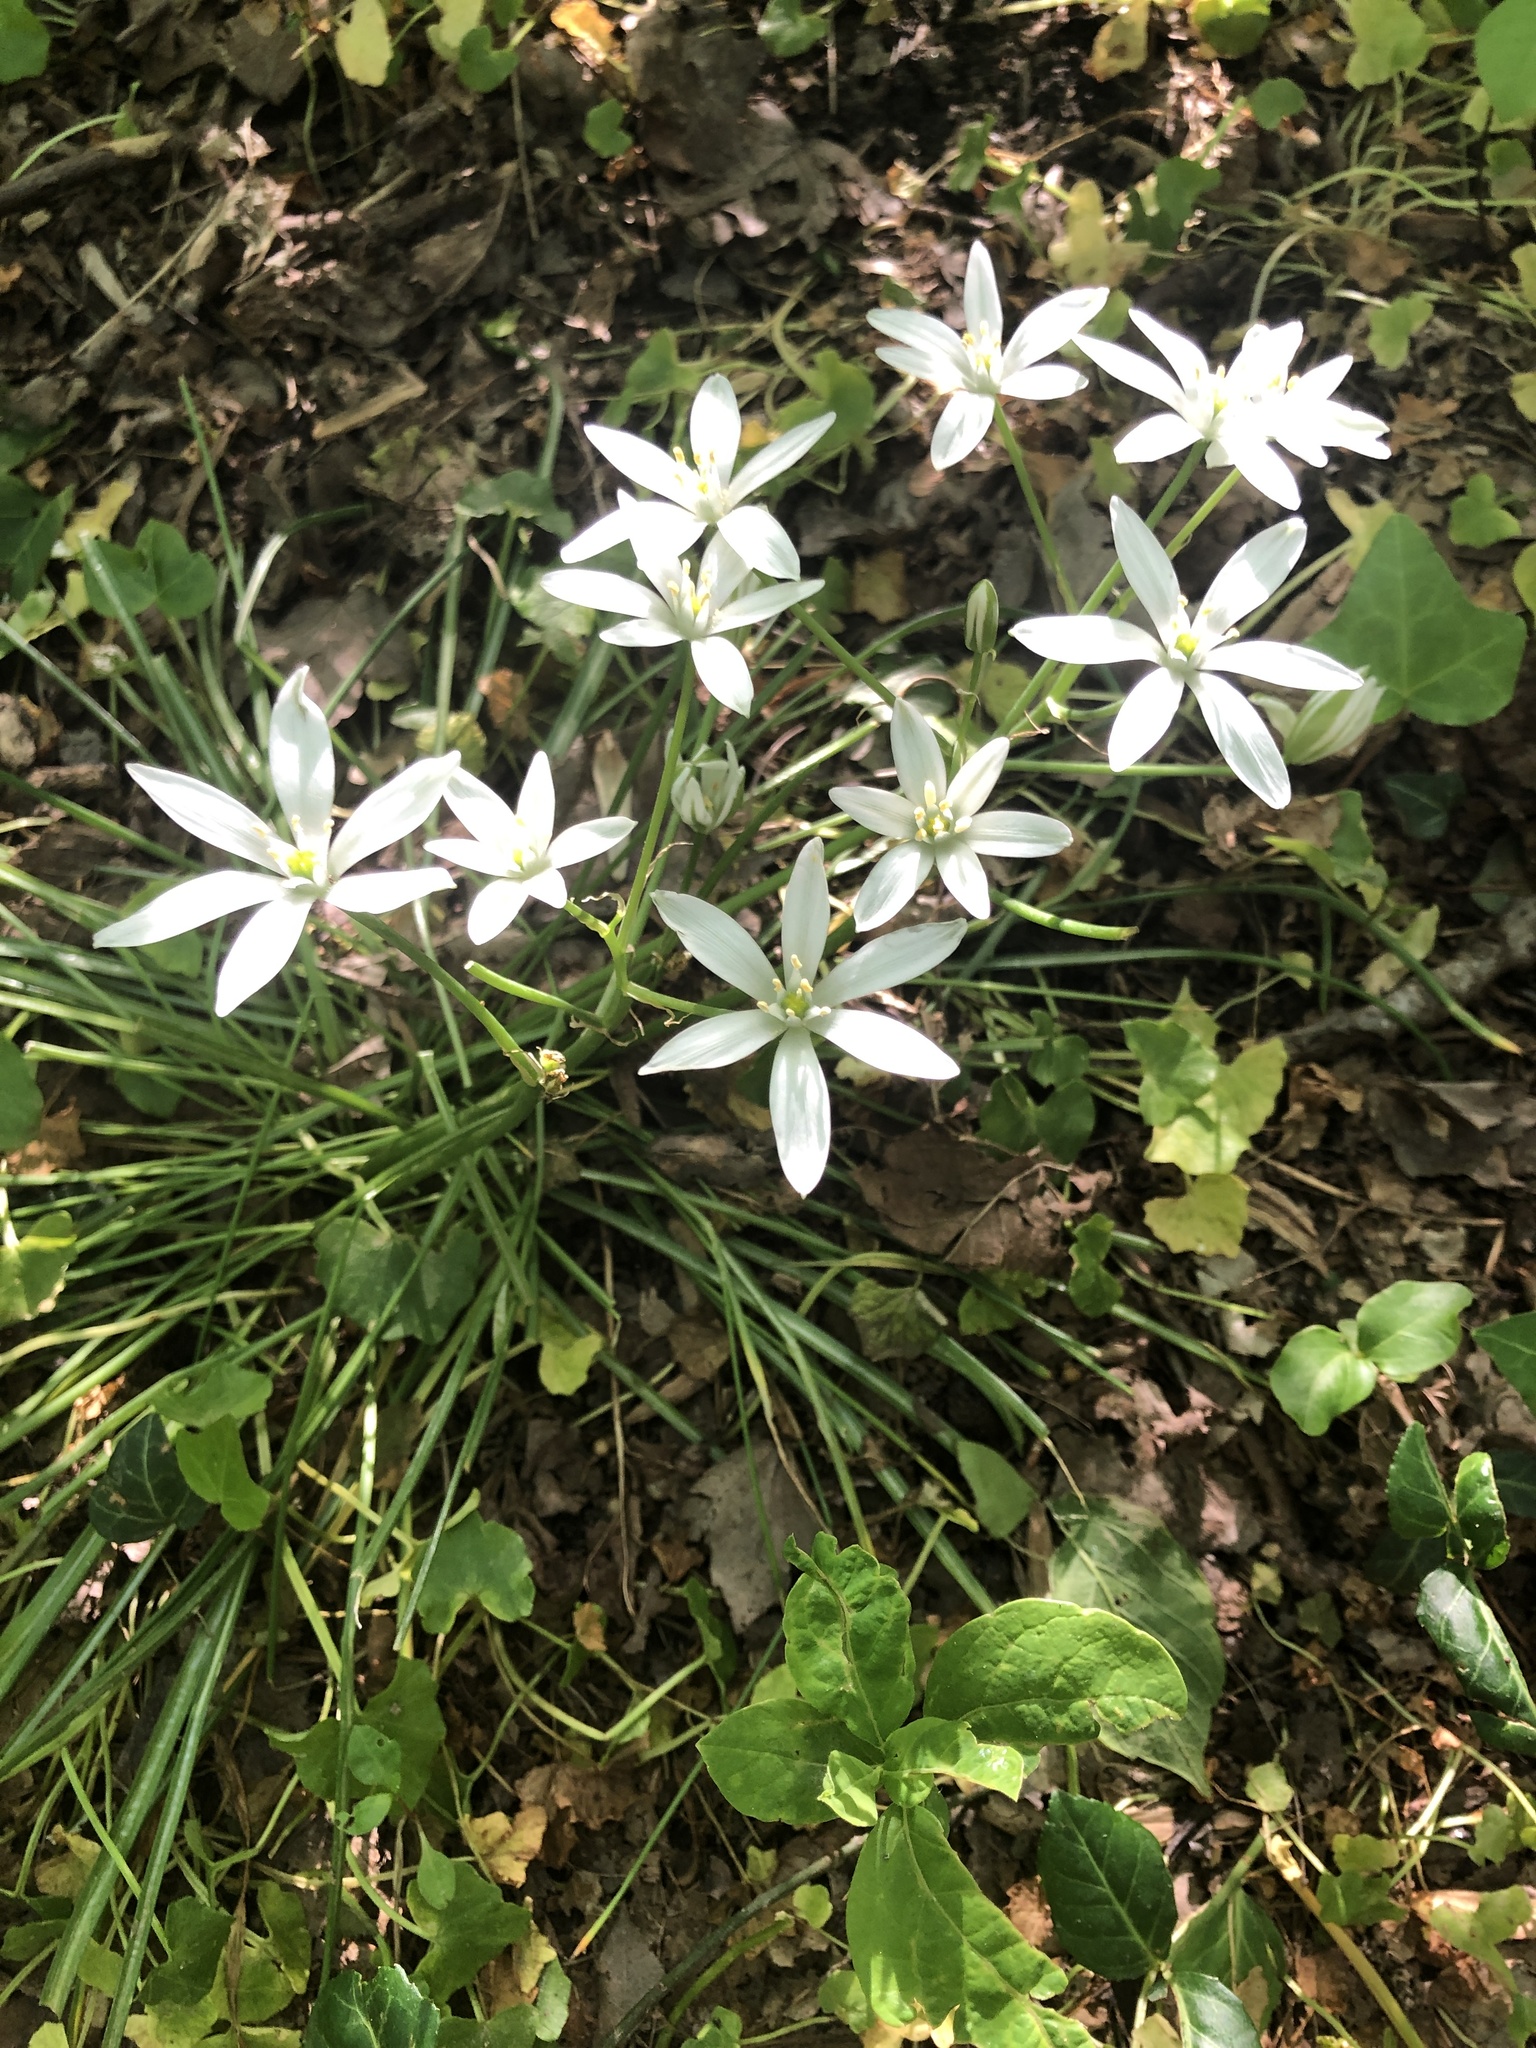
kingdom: Plantae
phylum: Tracheophyta
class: Liliopsida
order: Asparagales
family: Asparagaceae
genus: Ornithogalum
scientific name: Ornithogalum umbellatum
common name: Garden star-of-bethlehem
